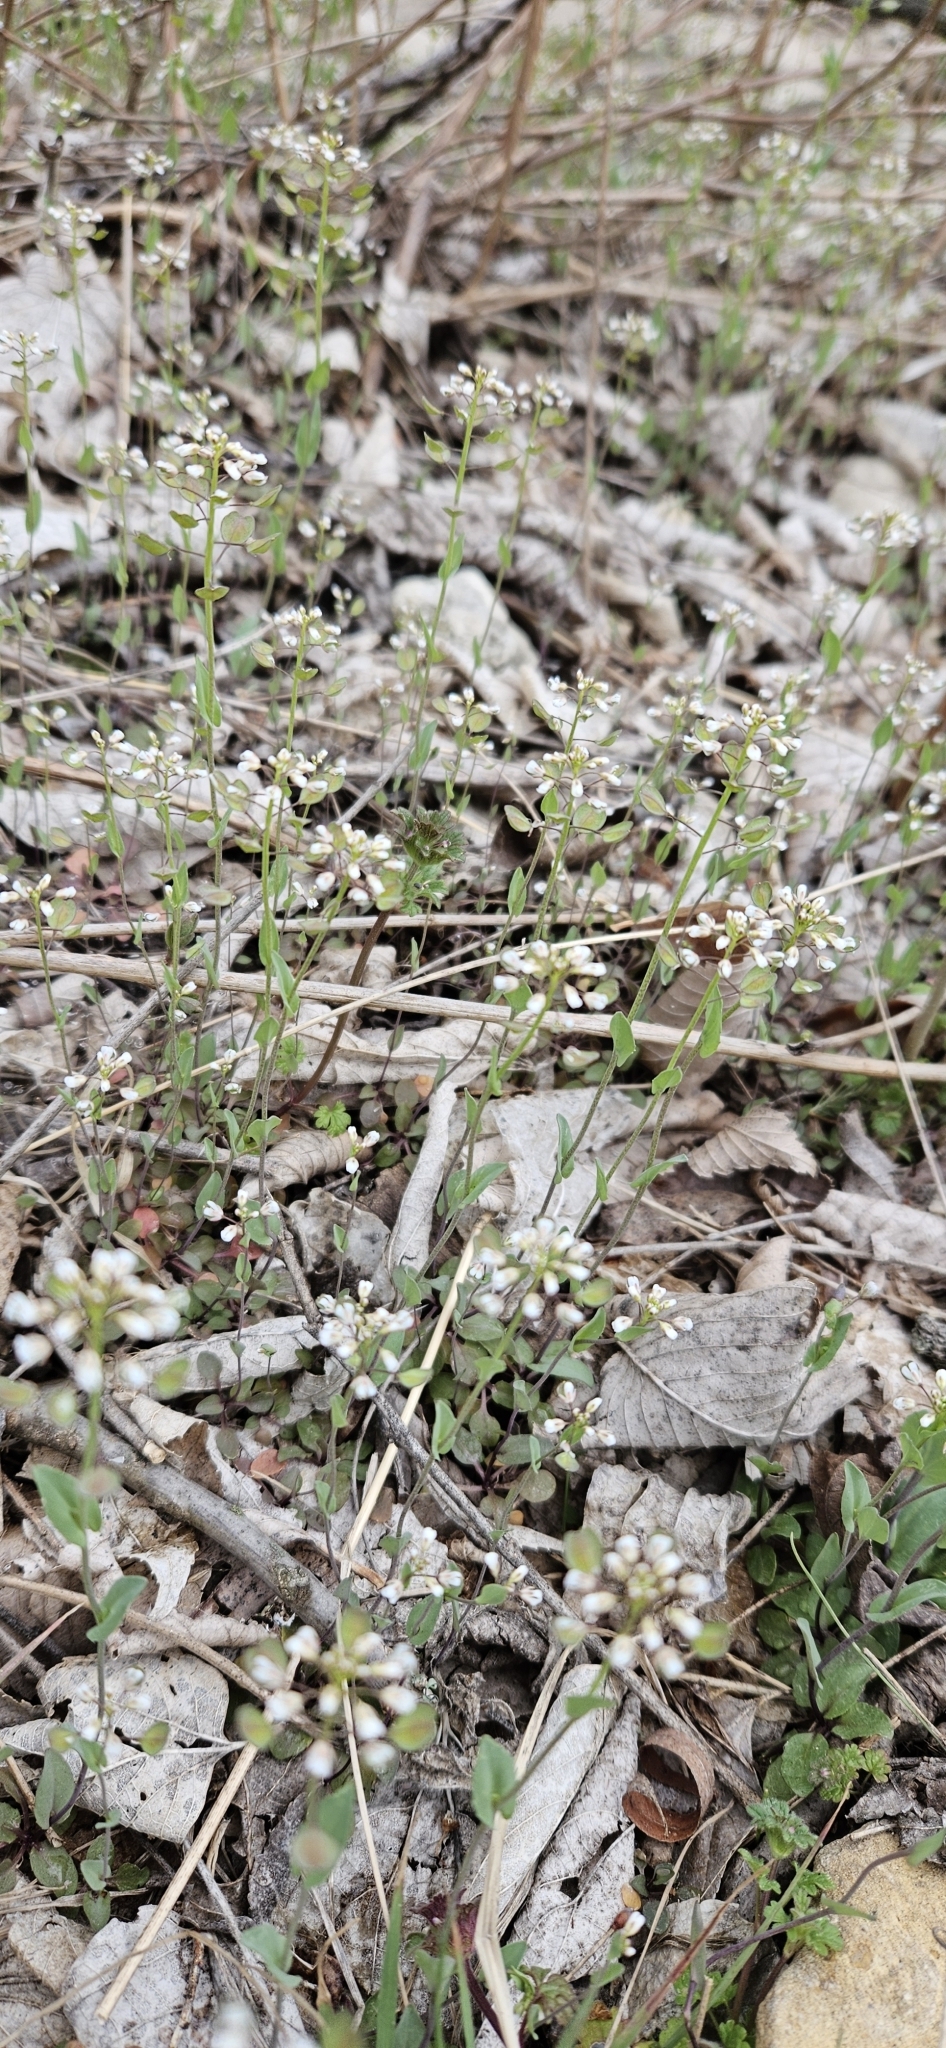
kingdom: Plantae
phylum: Tracheophyta
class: Magnoliopsida
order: Brassicales
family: Brassicaceae
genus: Noccaea
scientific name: Noccaea perfoliata
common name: Perfoliate pennycress
